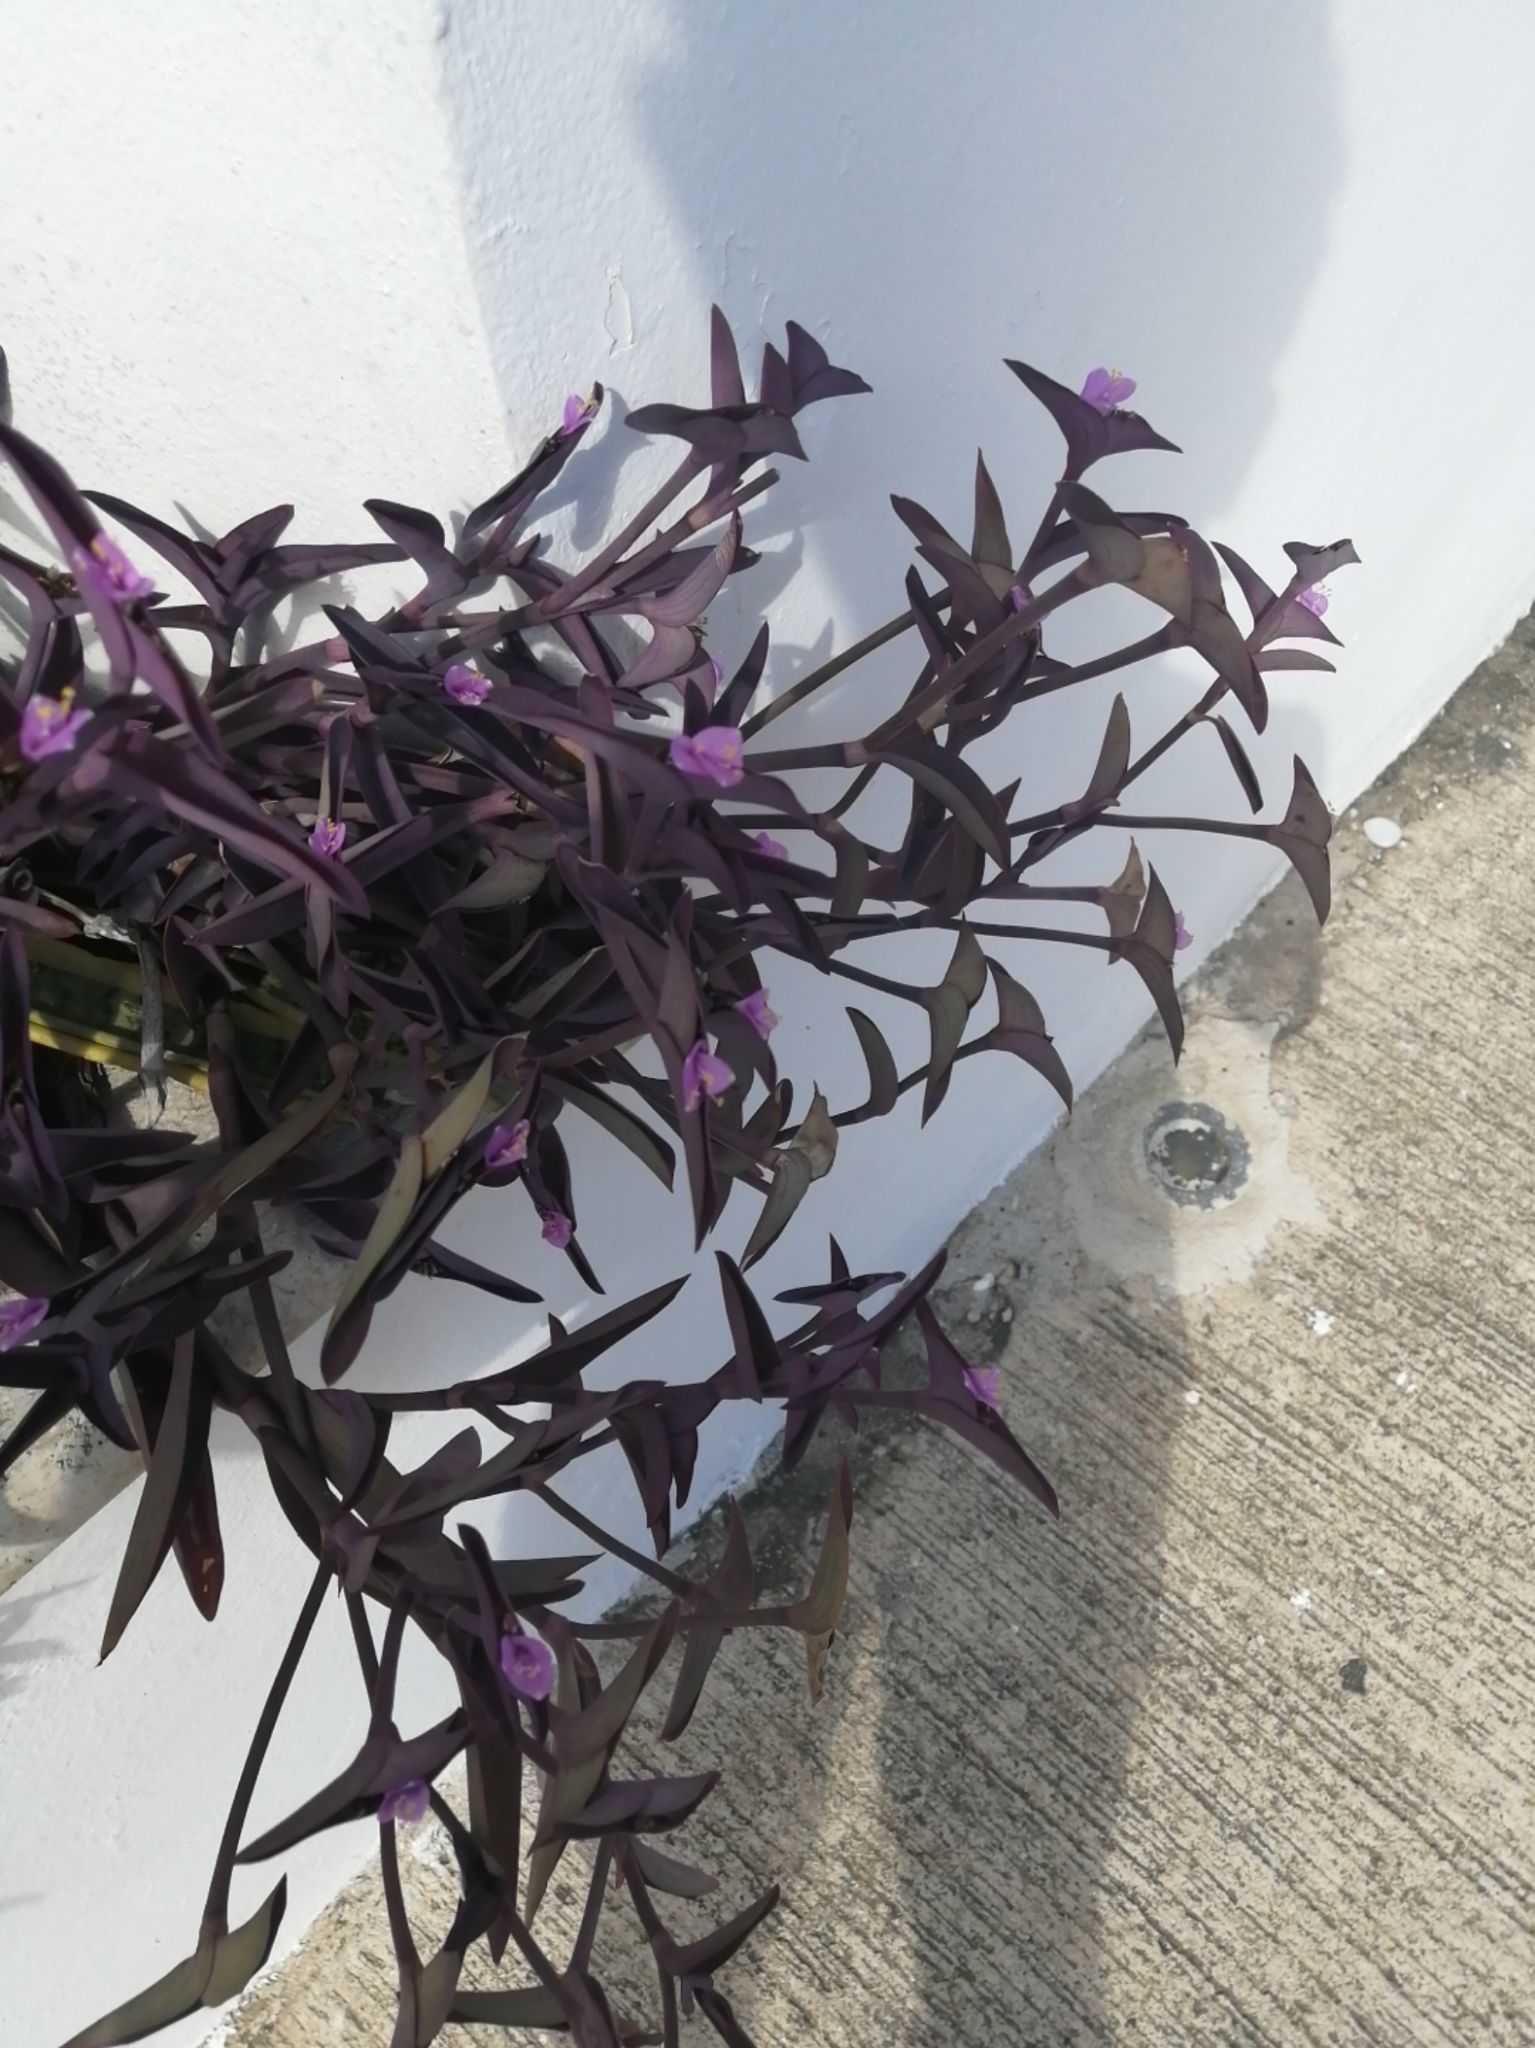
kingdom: Plantae
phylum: Tracheophyta
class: Liliopsida
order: Commelinales
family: Commelinaceae
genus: Tradescantia
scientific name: Tradescantia pallida
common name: Purpleheart
